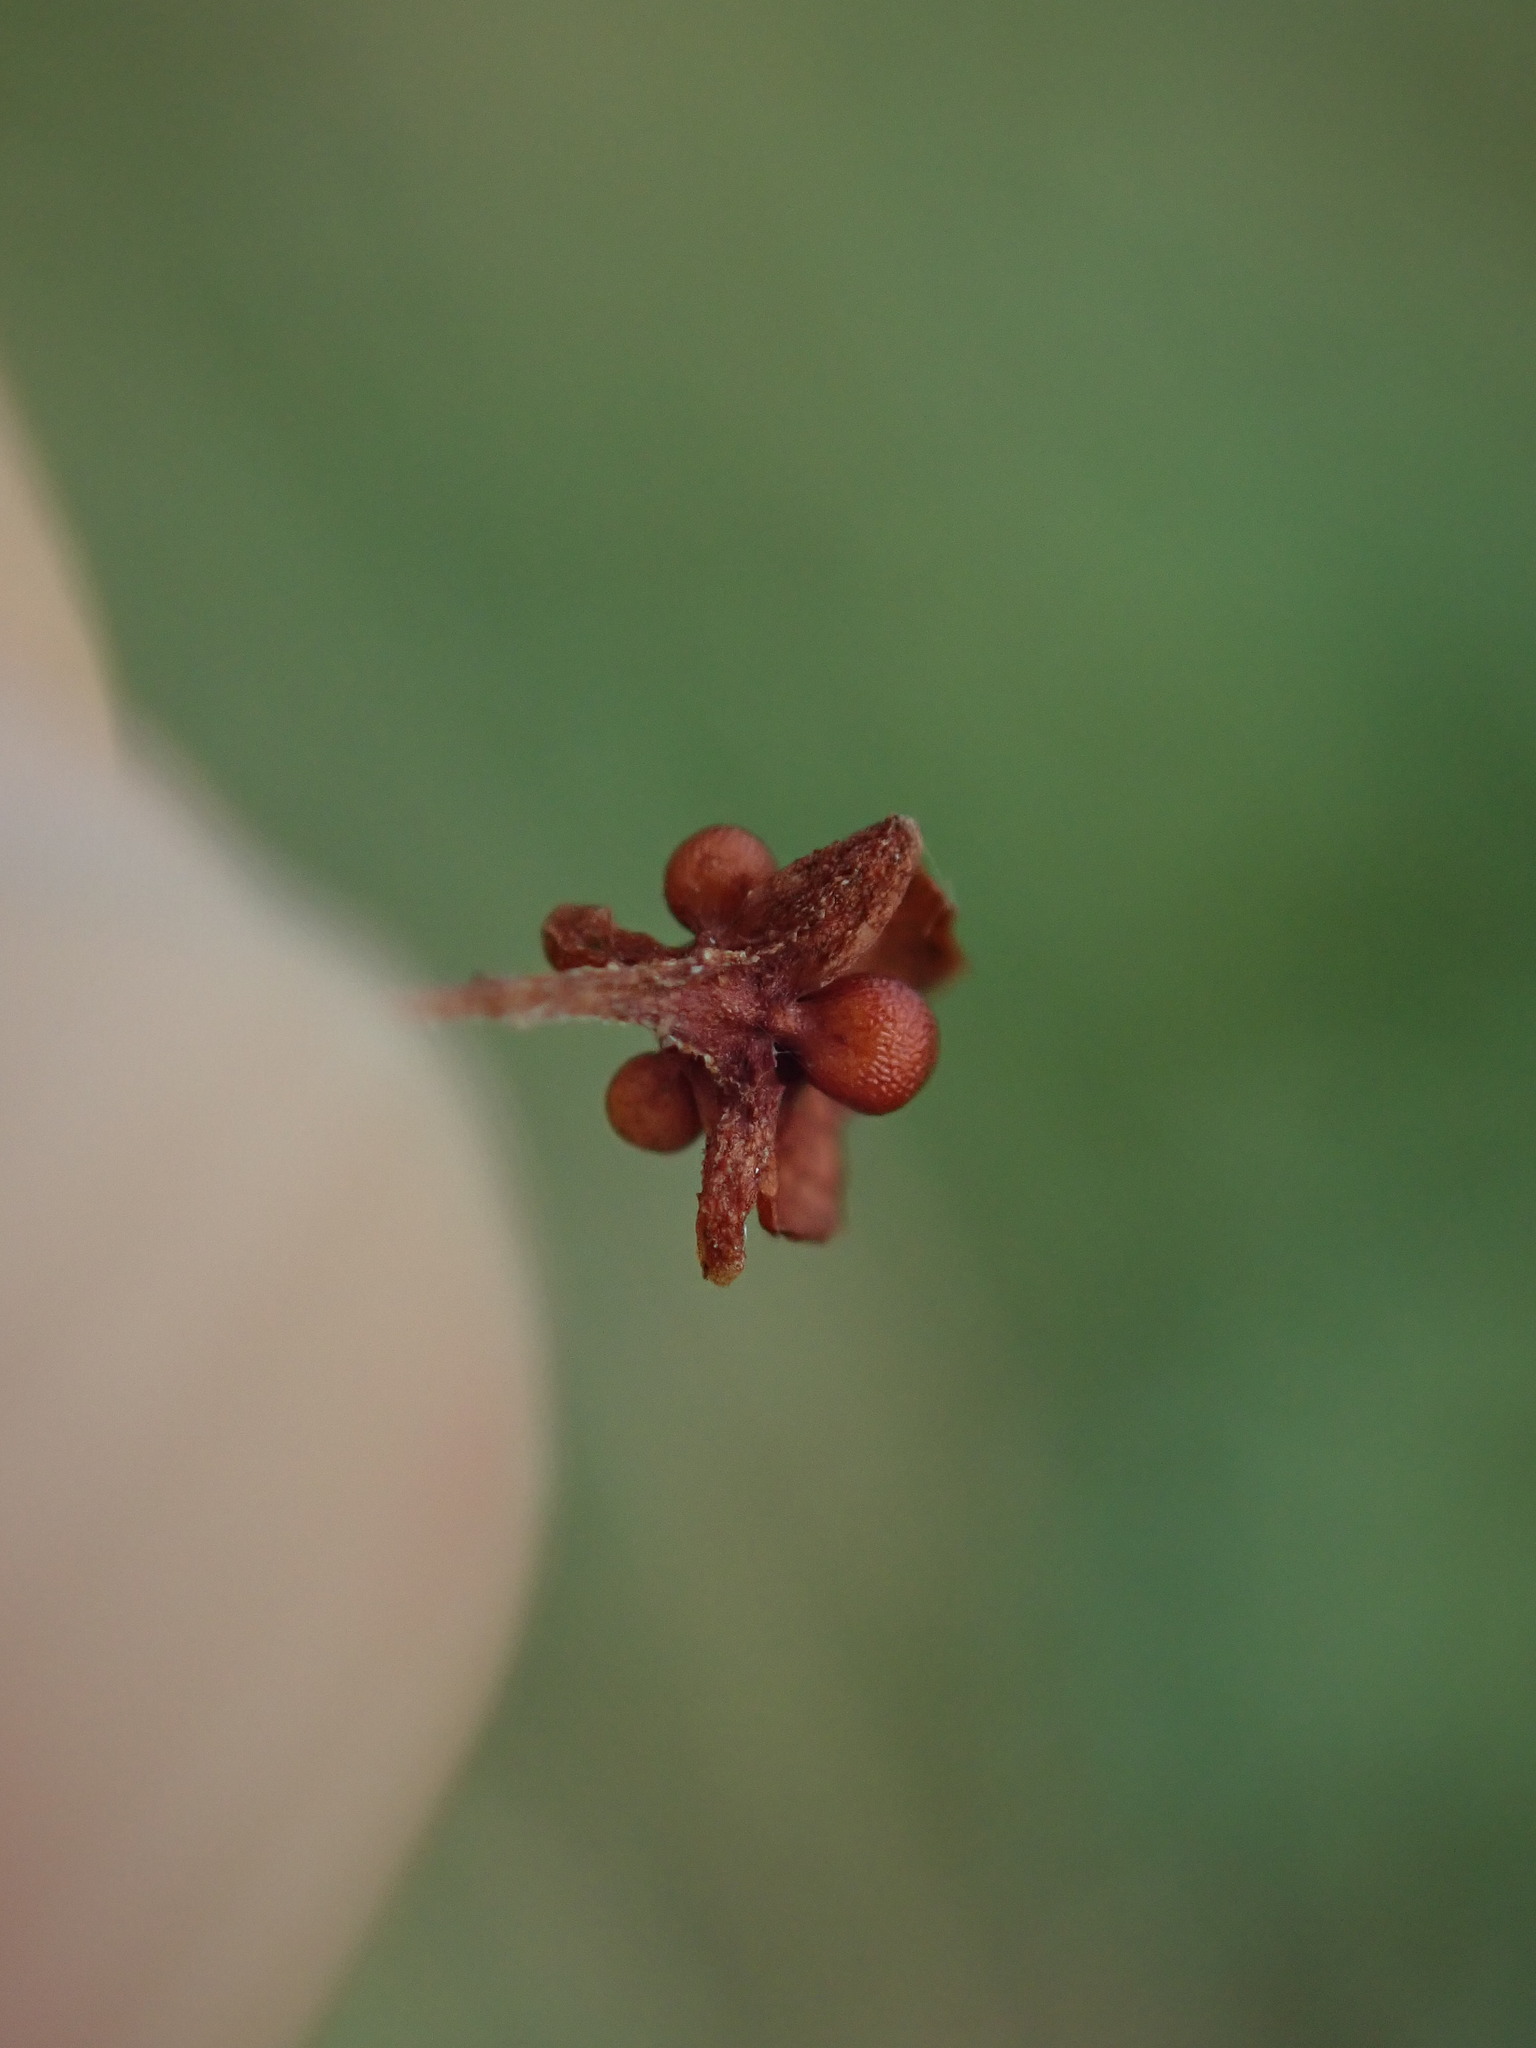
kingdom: Plantae
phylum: Tracheophyta
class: Magnoliopsida
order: Caryophyllales
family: Polygonaceae
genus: Rumex
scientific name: Rumex crispus
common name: Curled dock
